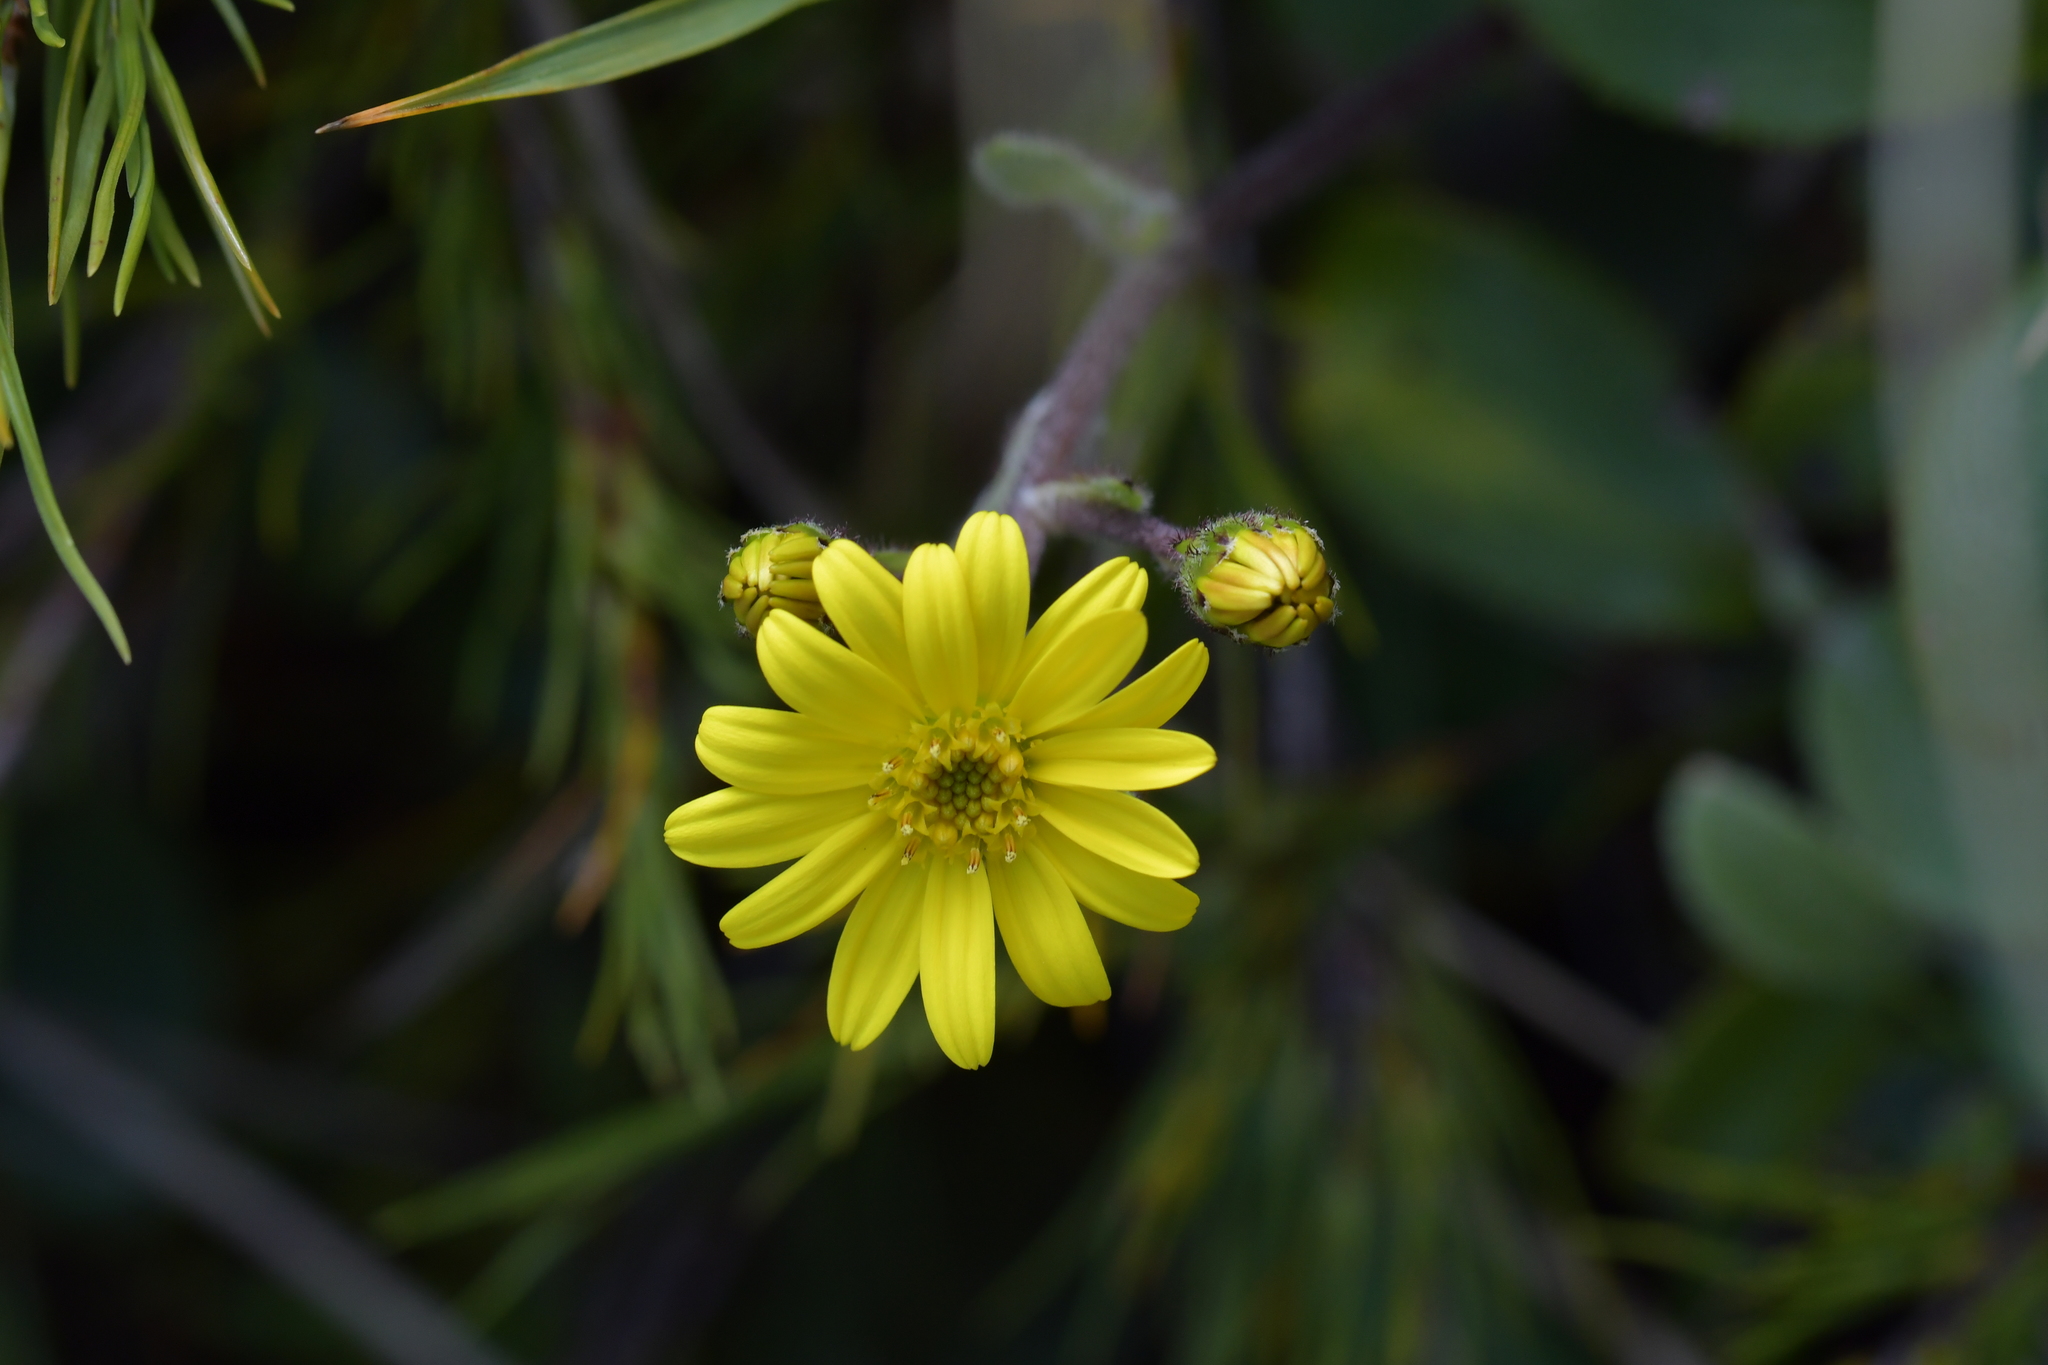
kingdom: Plantae
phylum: Tracheophyta
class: Magnoliopsida
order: Asterales
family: Asteraceae
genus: Brachyglottis
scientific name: Brachyglottis lagopus
